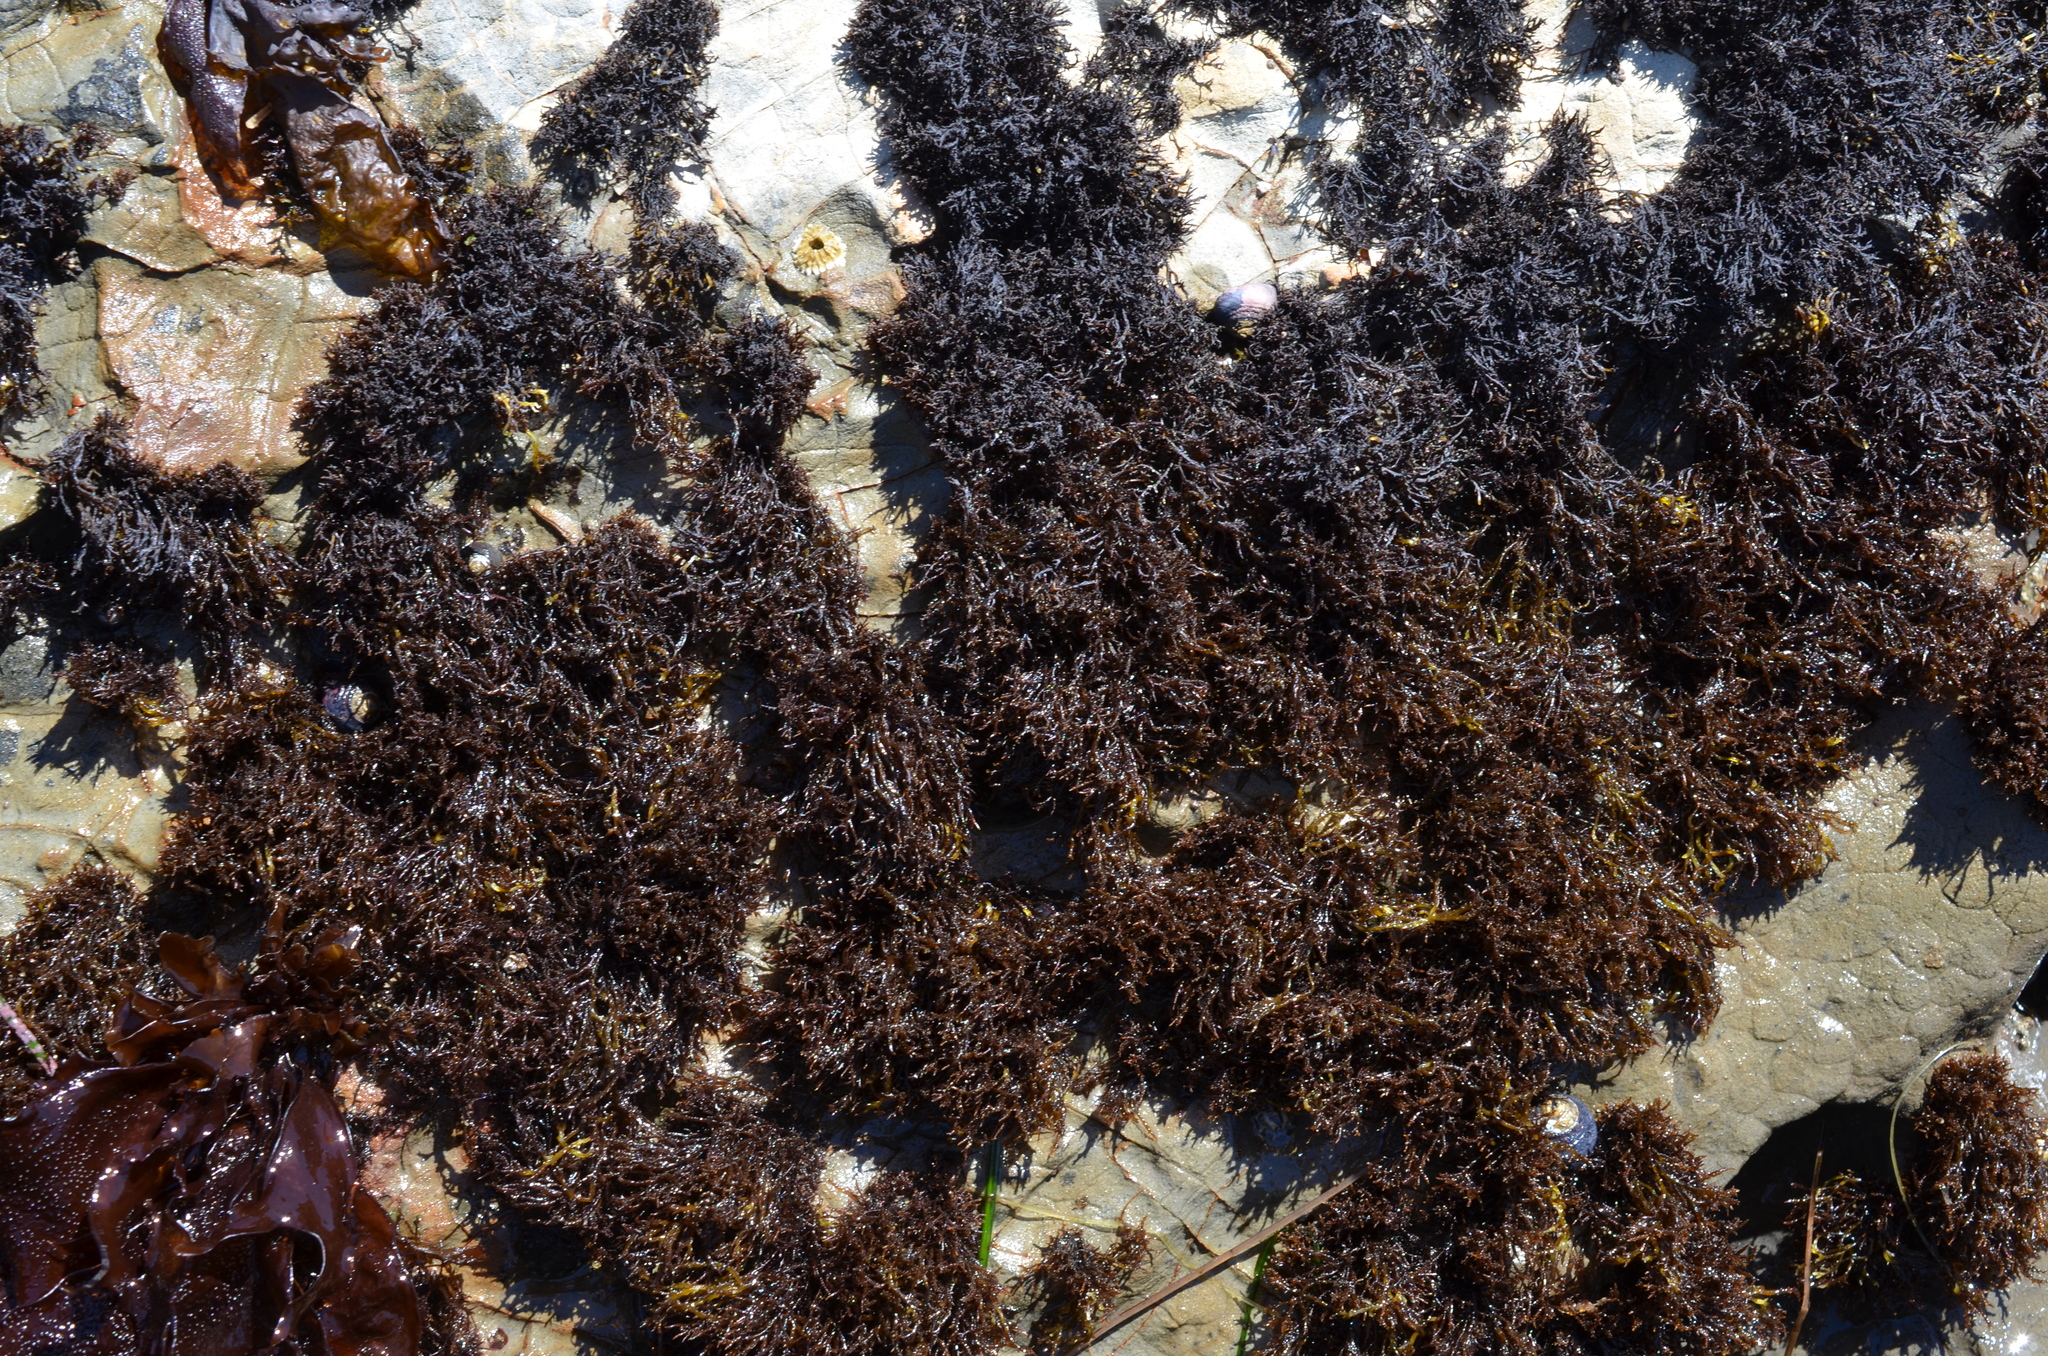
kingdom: Plantae
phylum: Rhodophyta
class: Florideophyceae
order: Gigartinales
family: Endocladiaceae
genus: Endocladia
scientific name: Endocladia muricata
